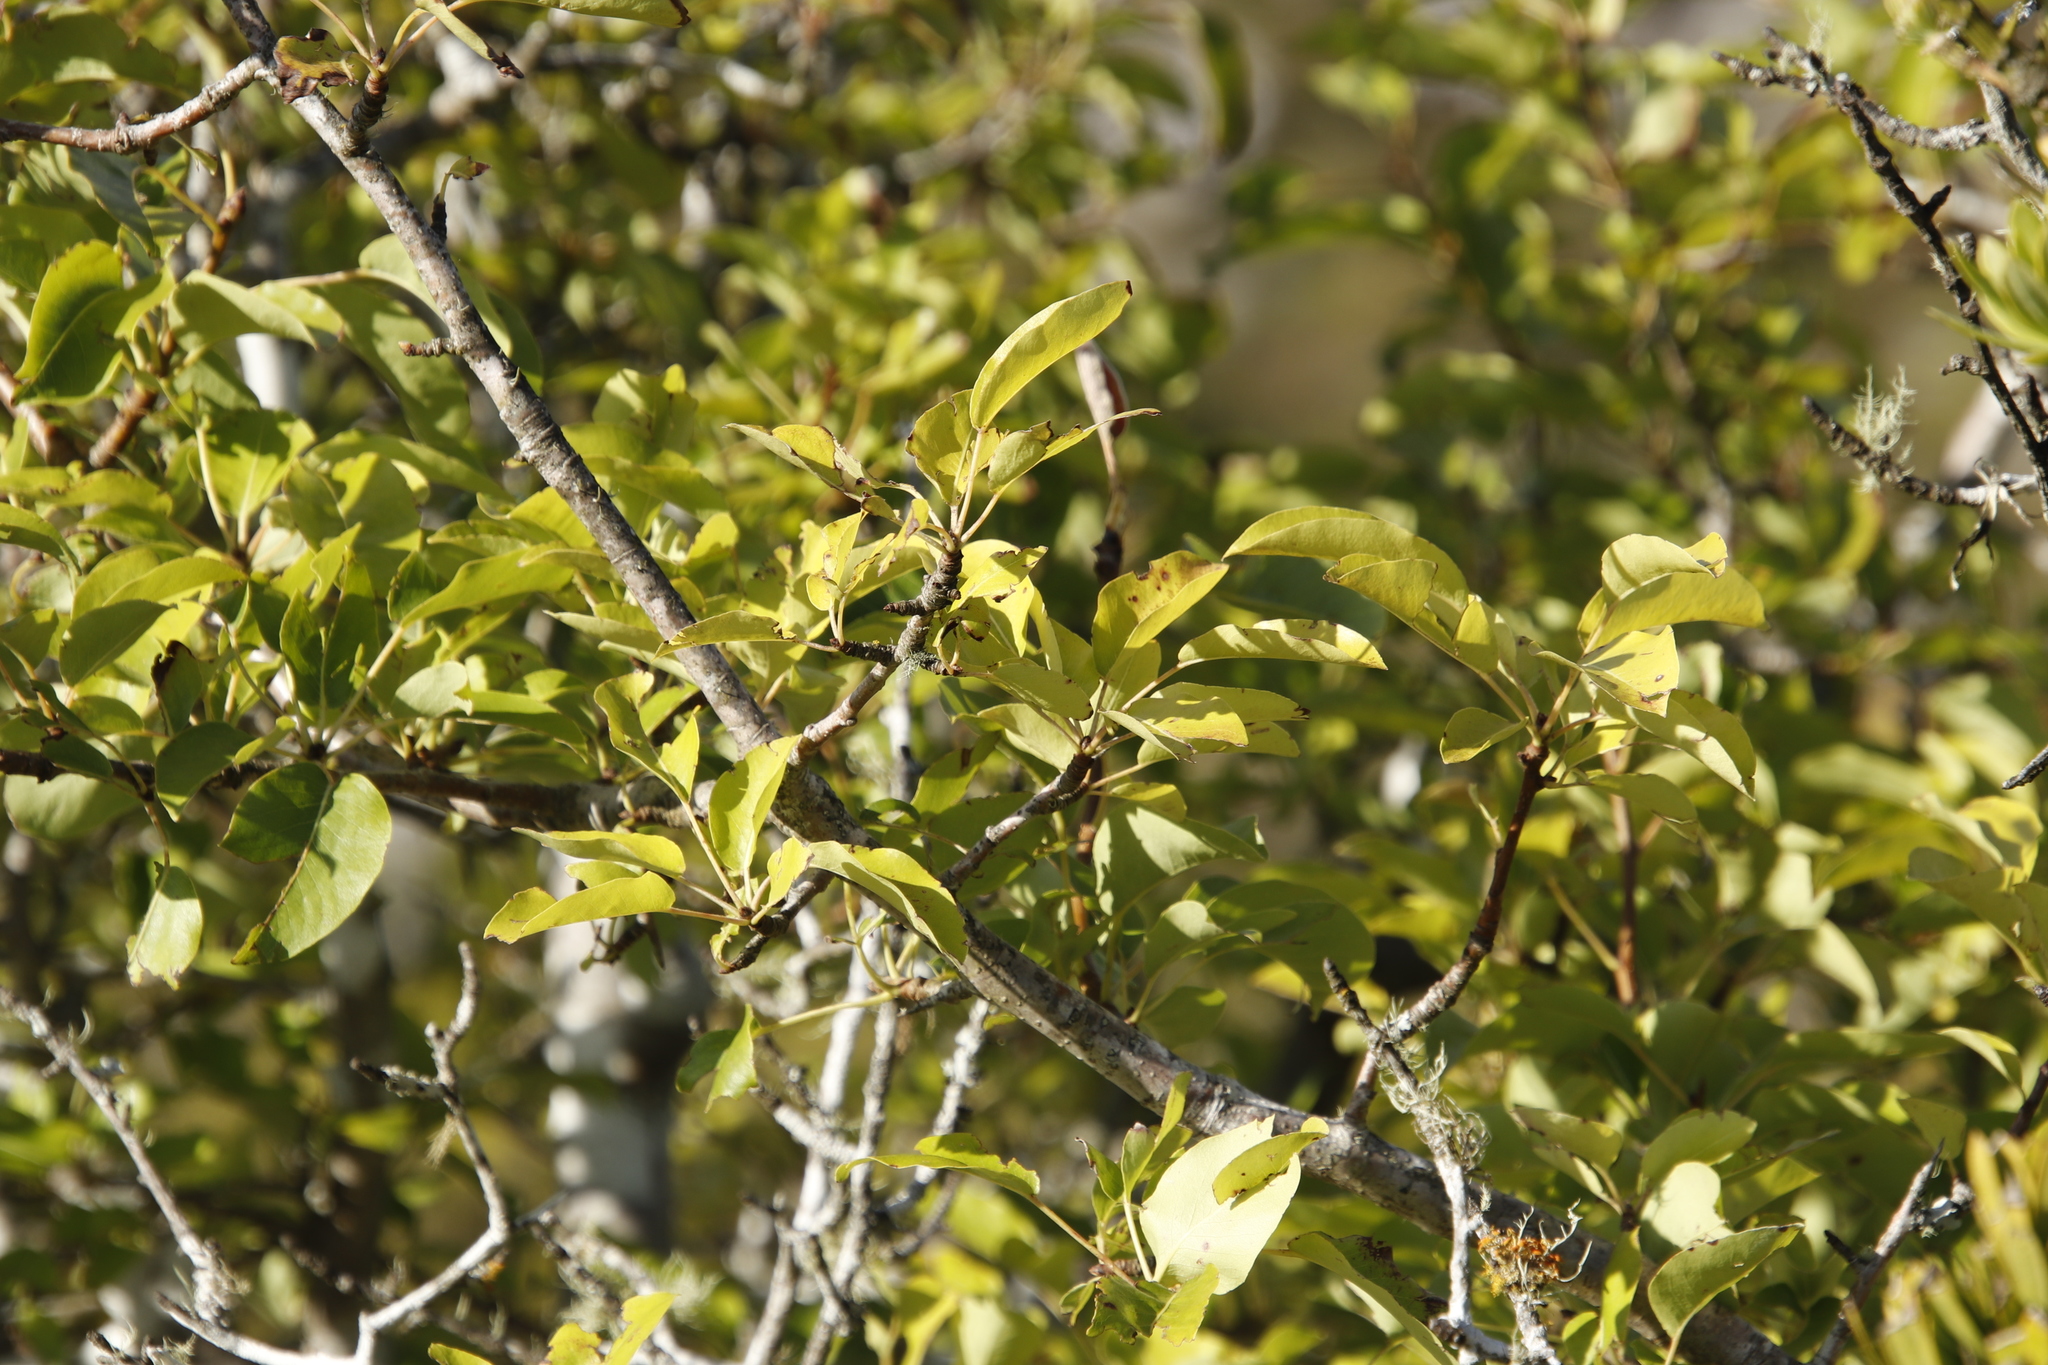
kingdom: Plantae
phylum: Tracheophyta
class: Magnoliopsida
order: Rosales
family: Rosaceae
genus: Malus
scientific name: Malus domestica
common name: Apple
